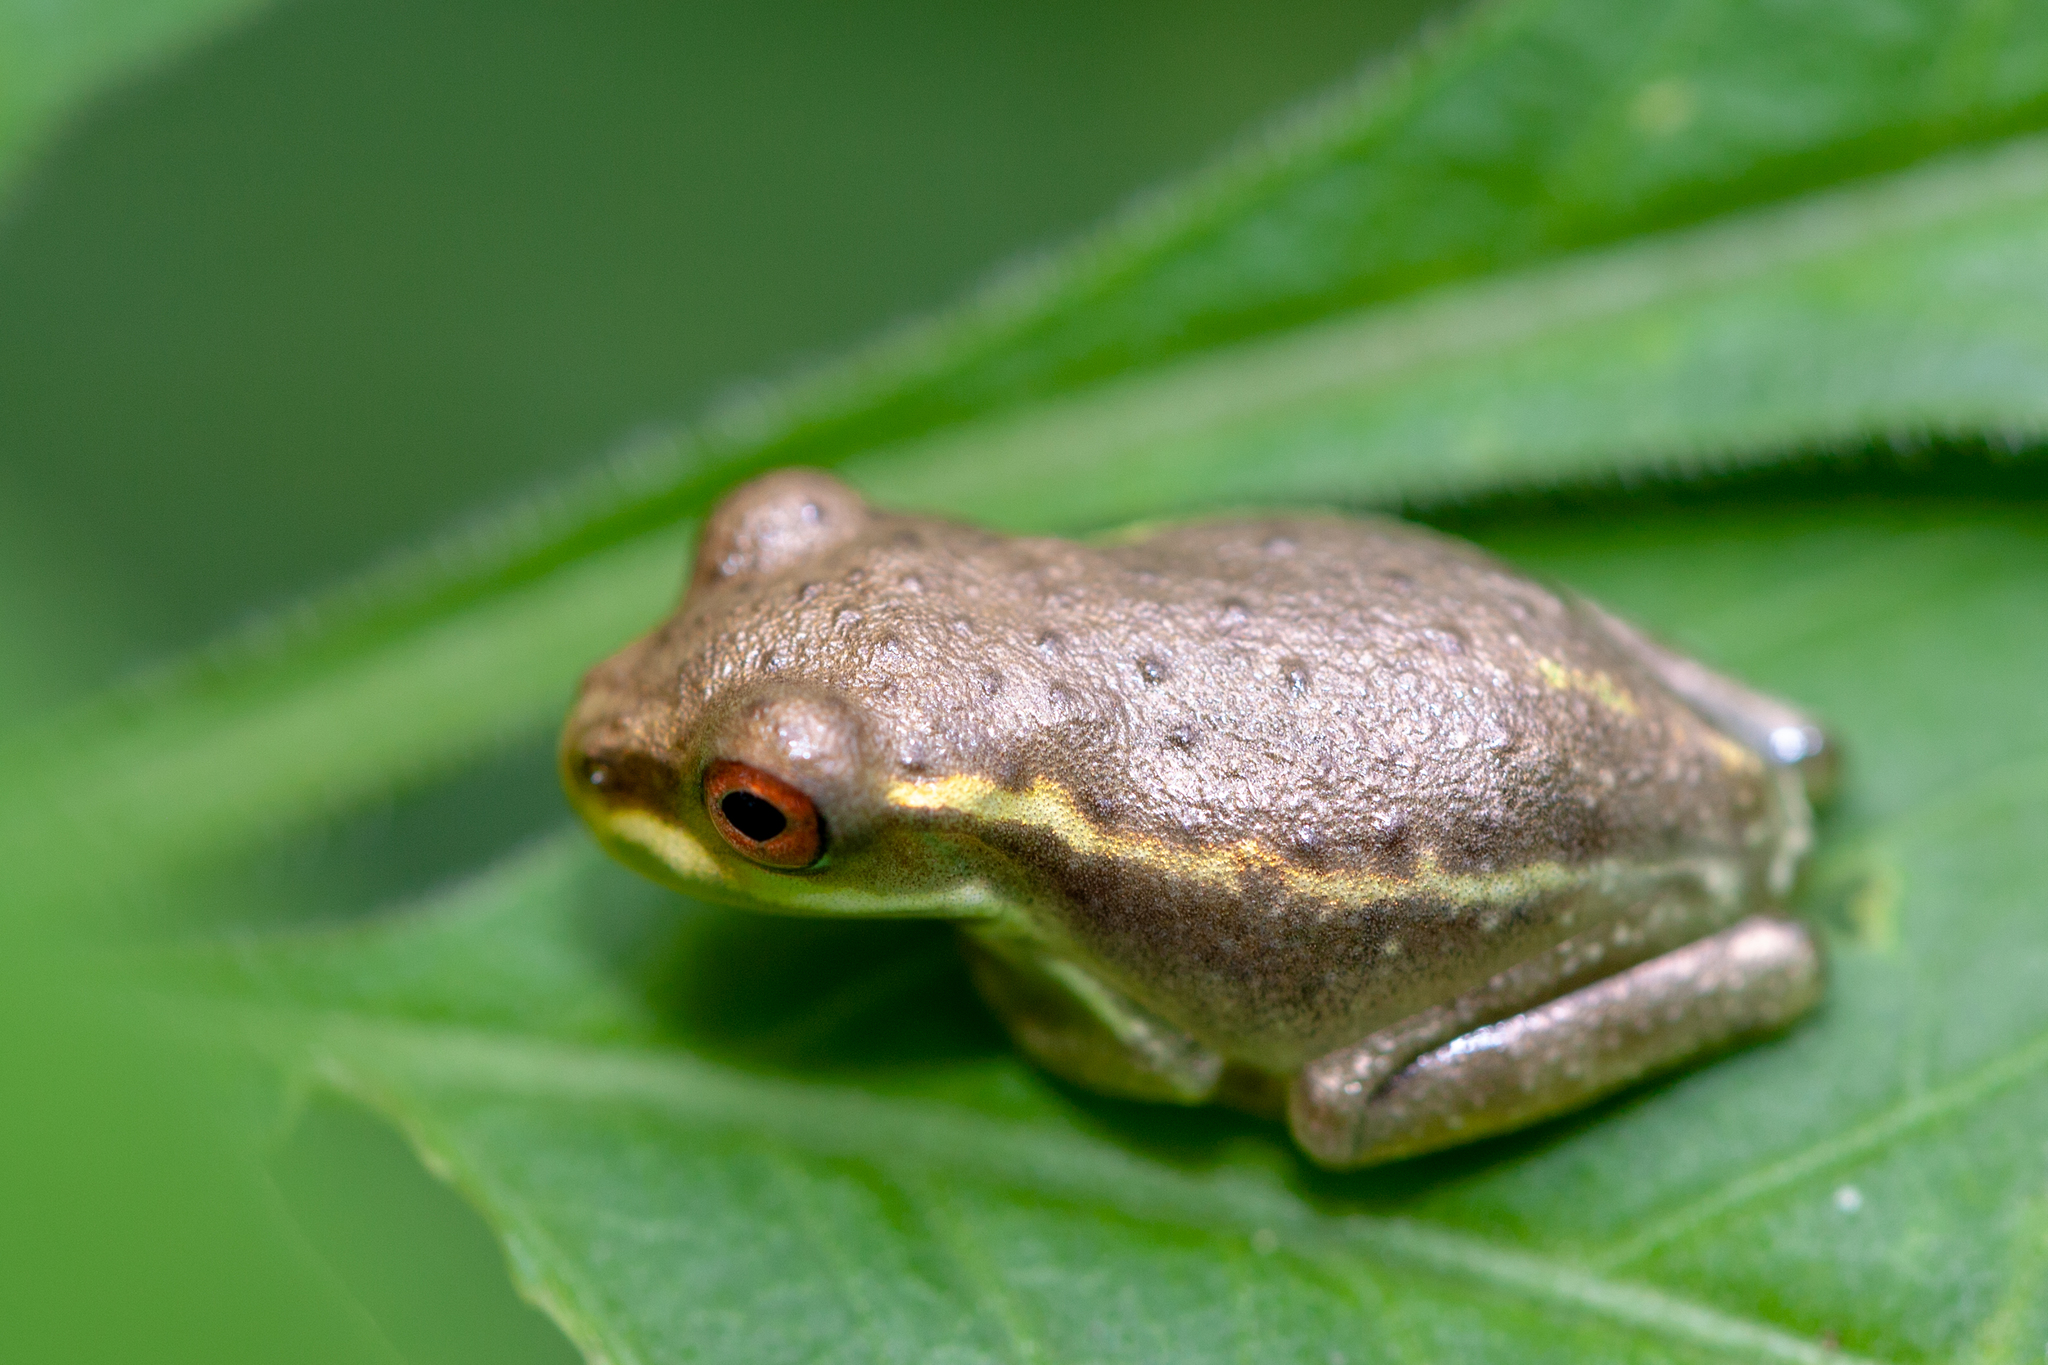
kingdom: Animalia
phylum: Chordata
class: Amphibia
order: Anura
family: Hylidae
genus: Osteopilus
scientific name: Osteopilus septentrionalis
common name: Cuban treefrog
